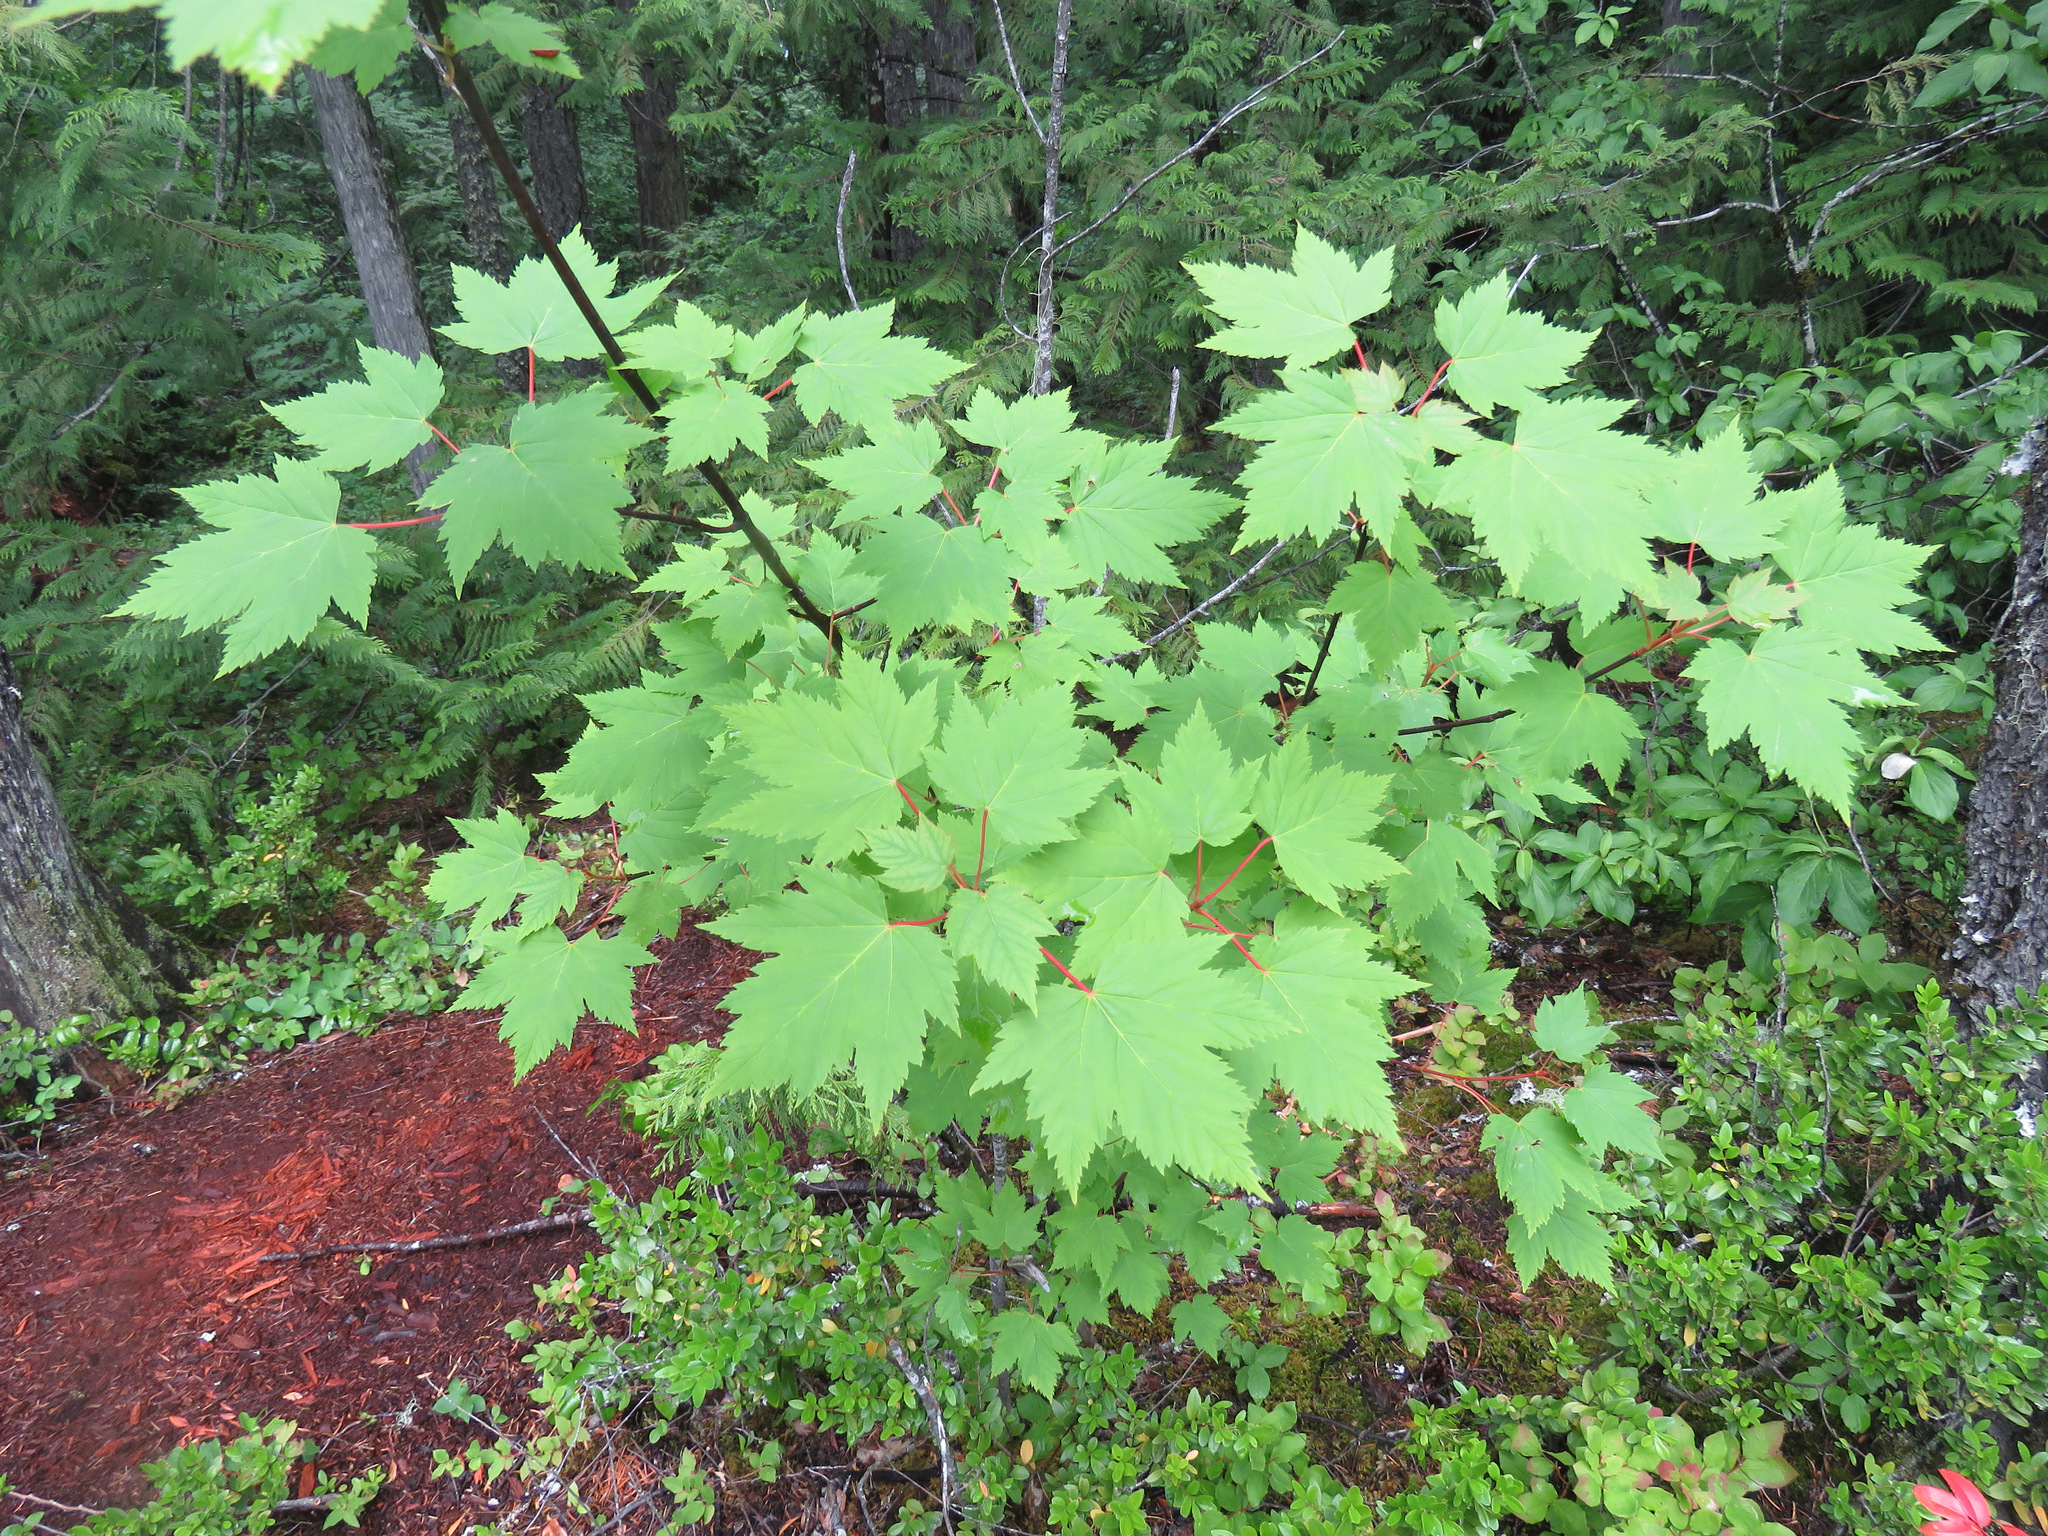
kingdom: Plantae
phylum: Tracheophyta
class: Magnoliopsida
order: Sapindales
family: Sapindaceae
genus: Acer
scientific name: Acer glabrum
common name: Rocky mountain maple
